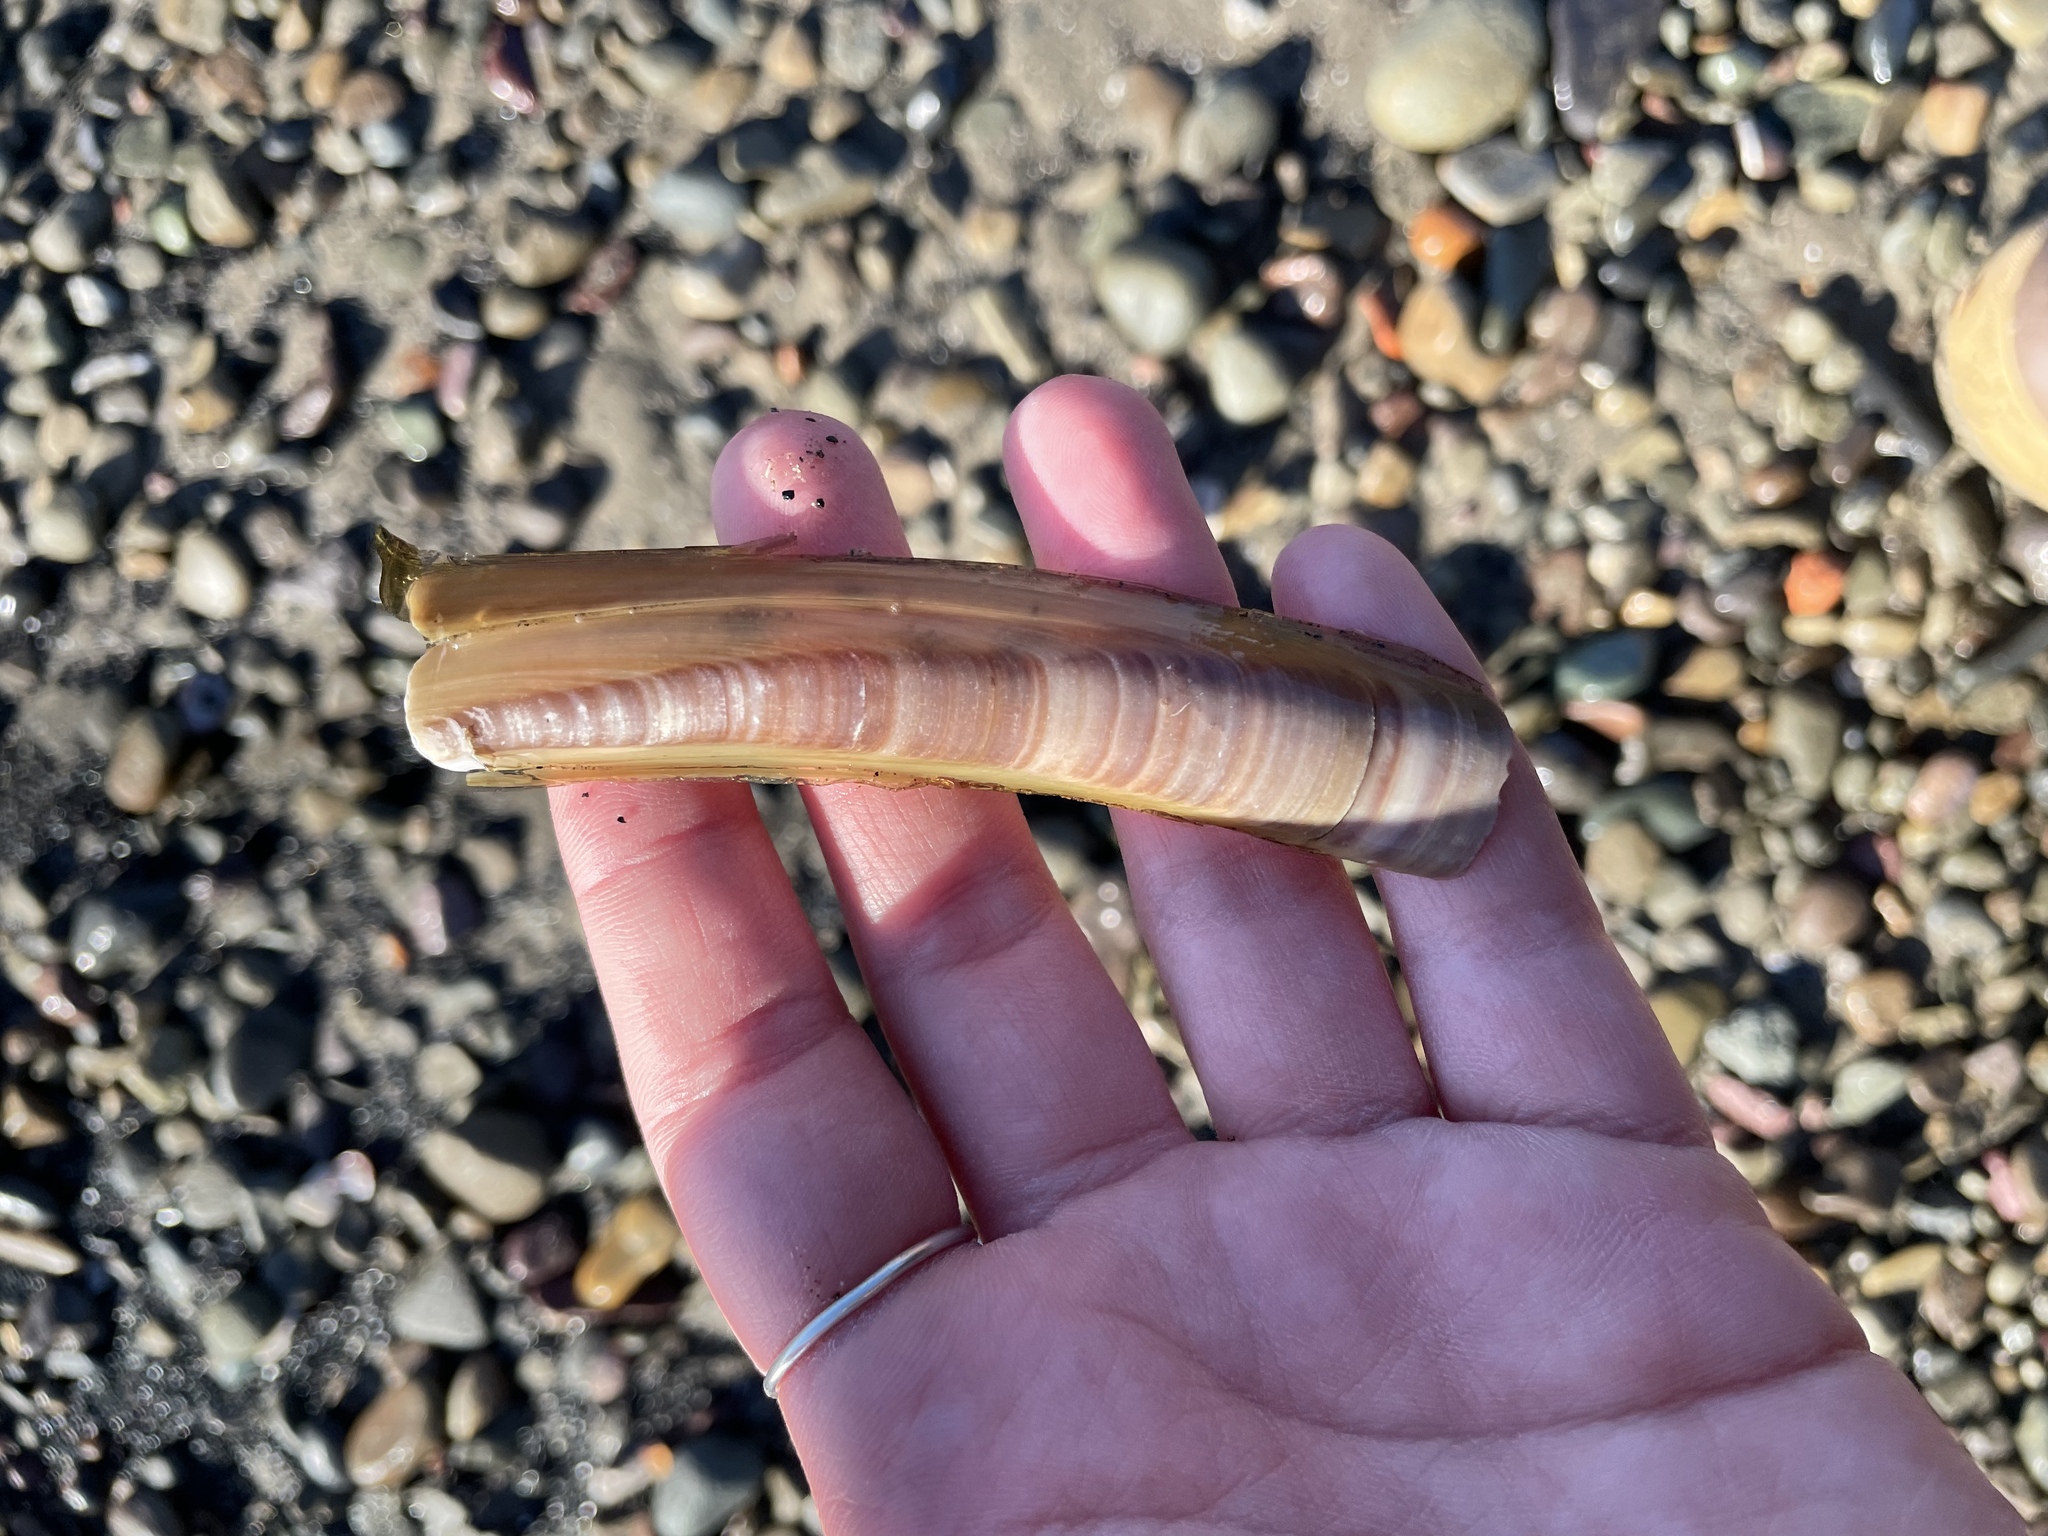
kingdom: Animalia
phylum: Mollusca
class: Bivalvia
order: Adapedonta
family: Pharidae
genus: Ensis
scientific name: Ensis leei
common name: American jack knife clam
